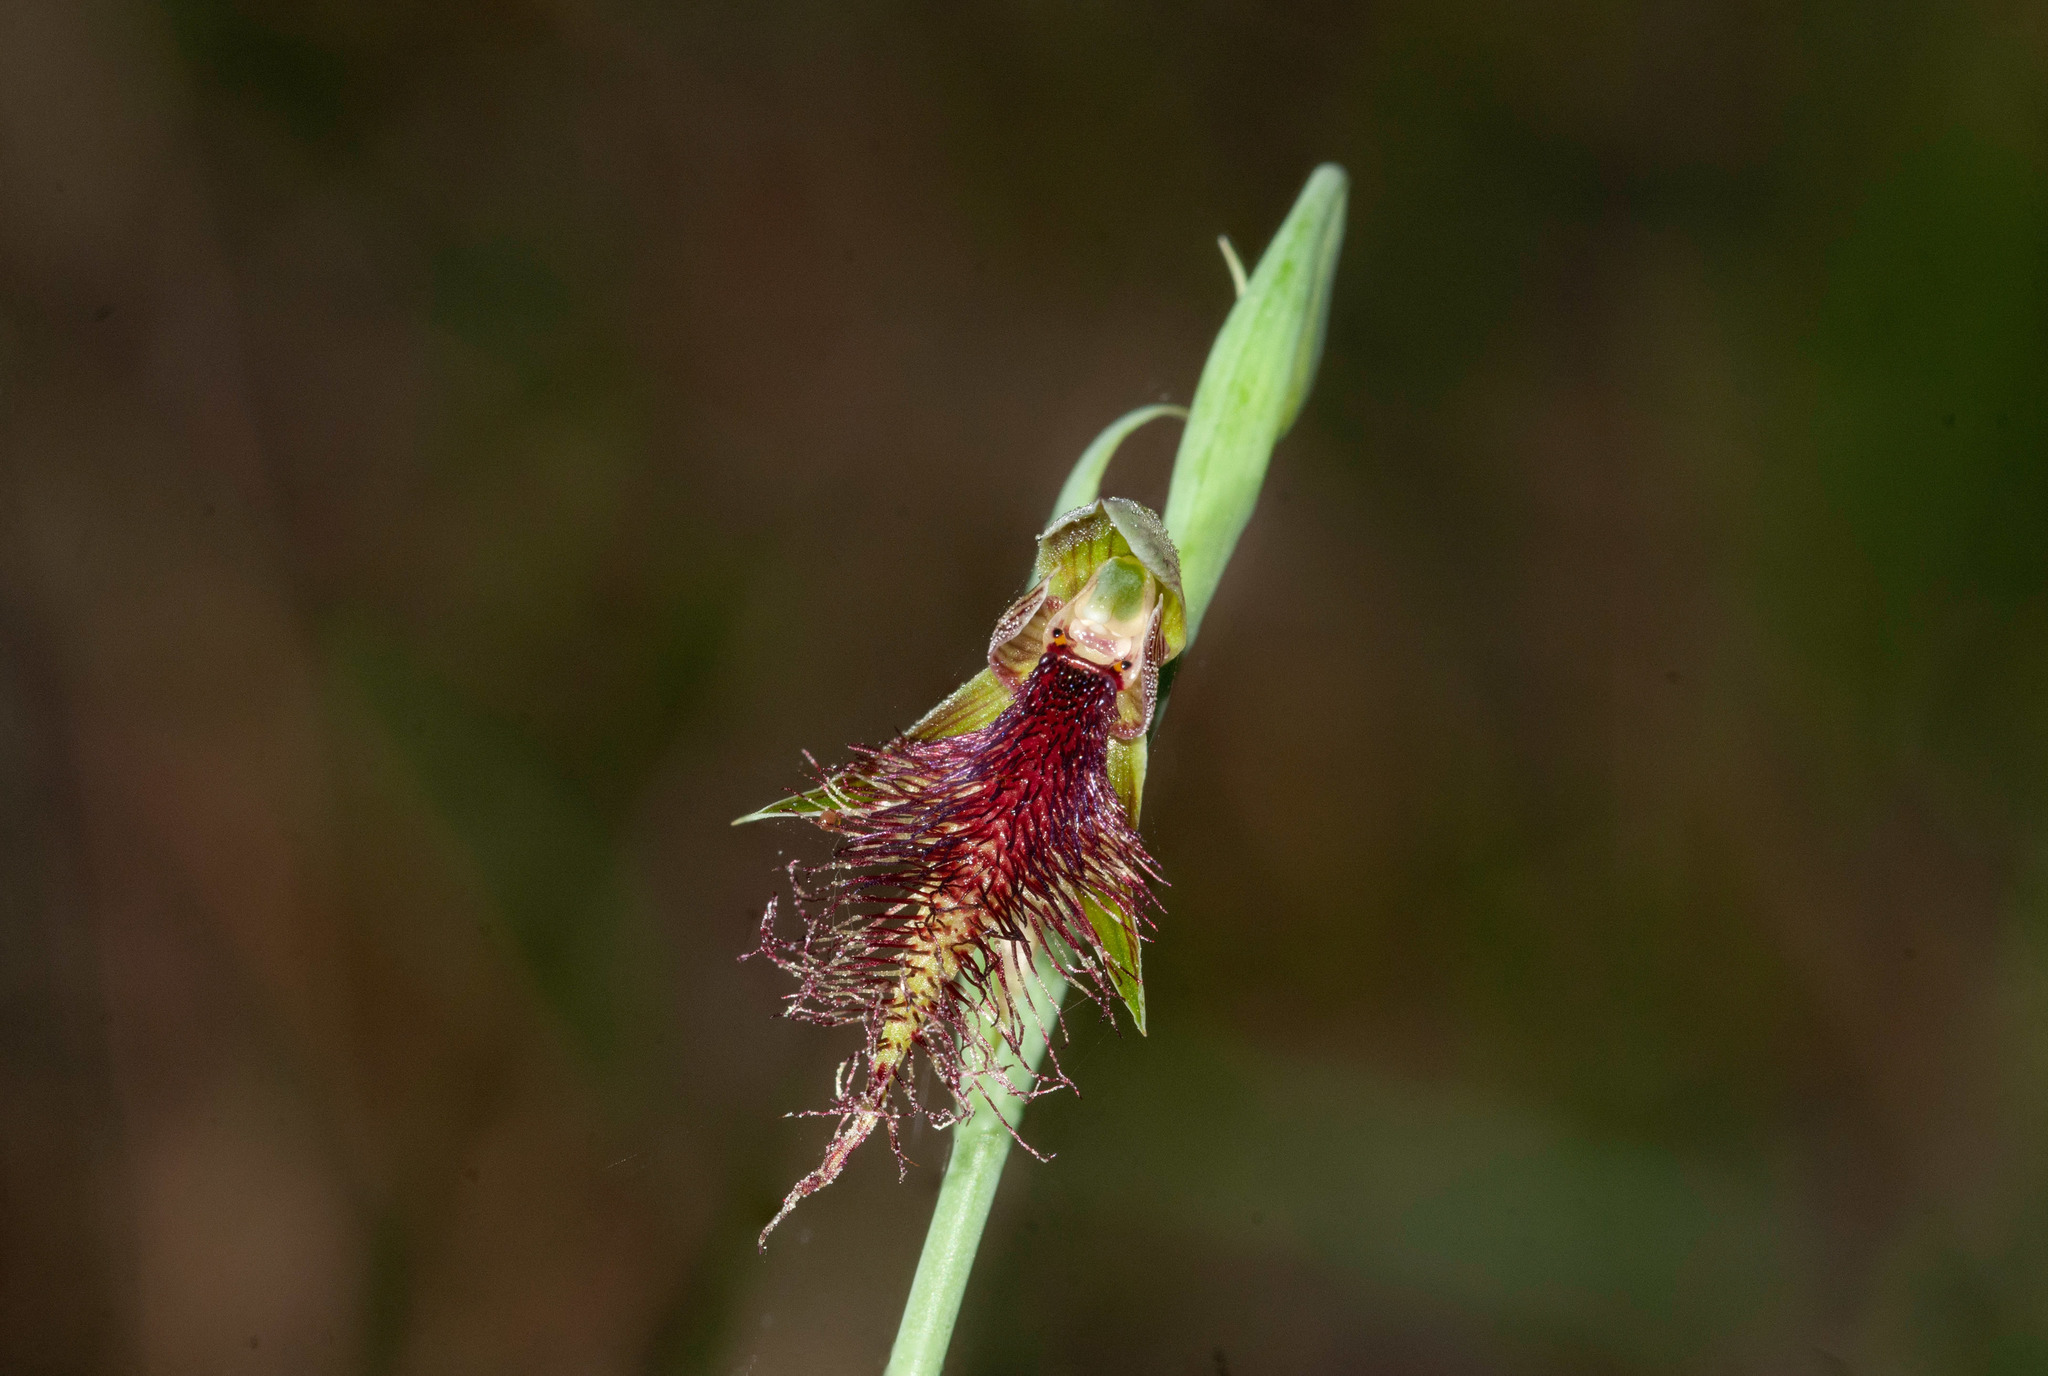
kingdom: Plantae
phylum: Tracheophyta
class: Liliopsida
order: Asparagales
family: Orchidaceae
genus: Calochilus
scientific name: Calochilus robertsonii
